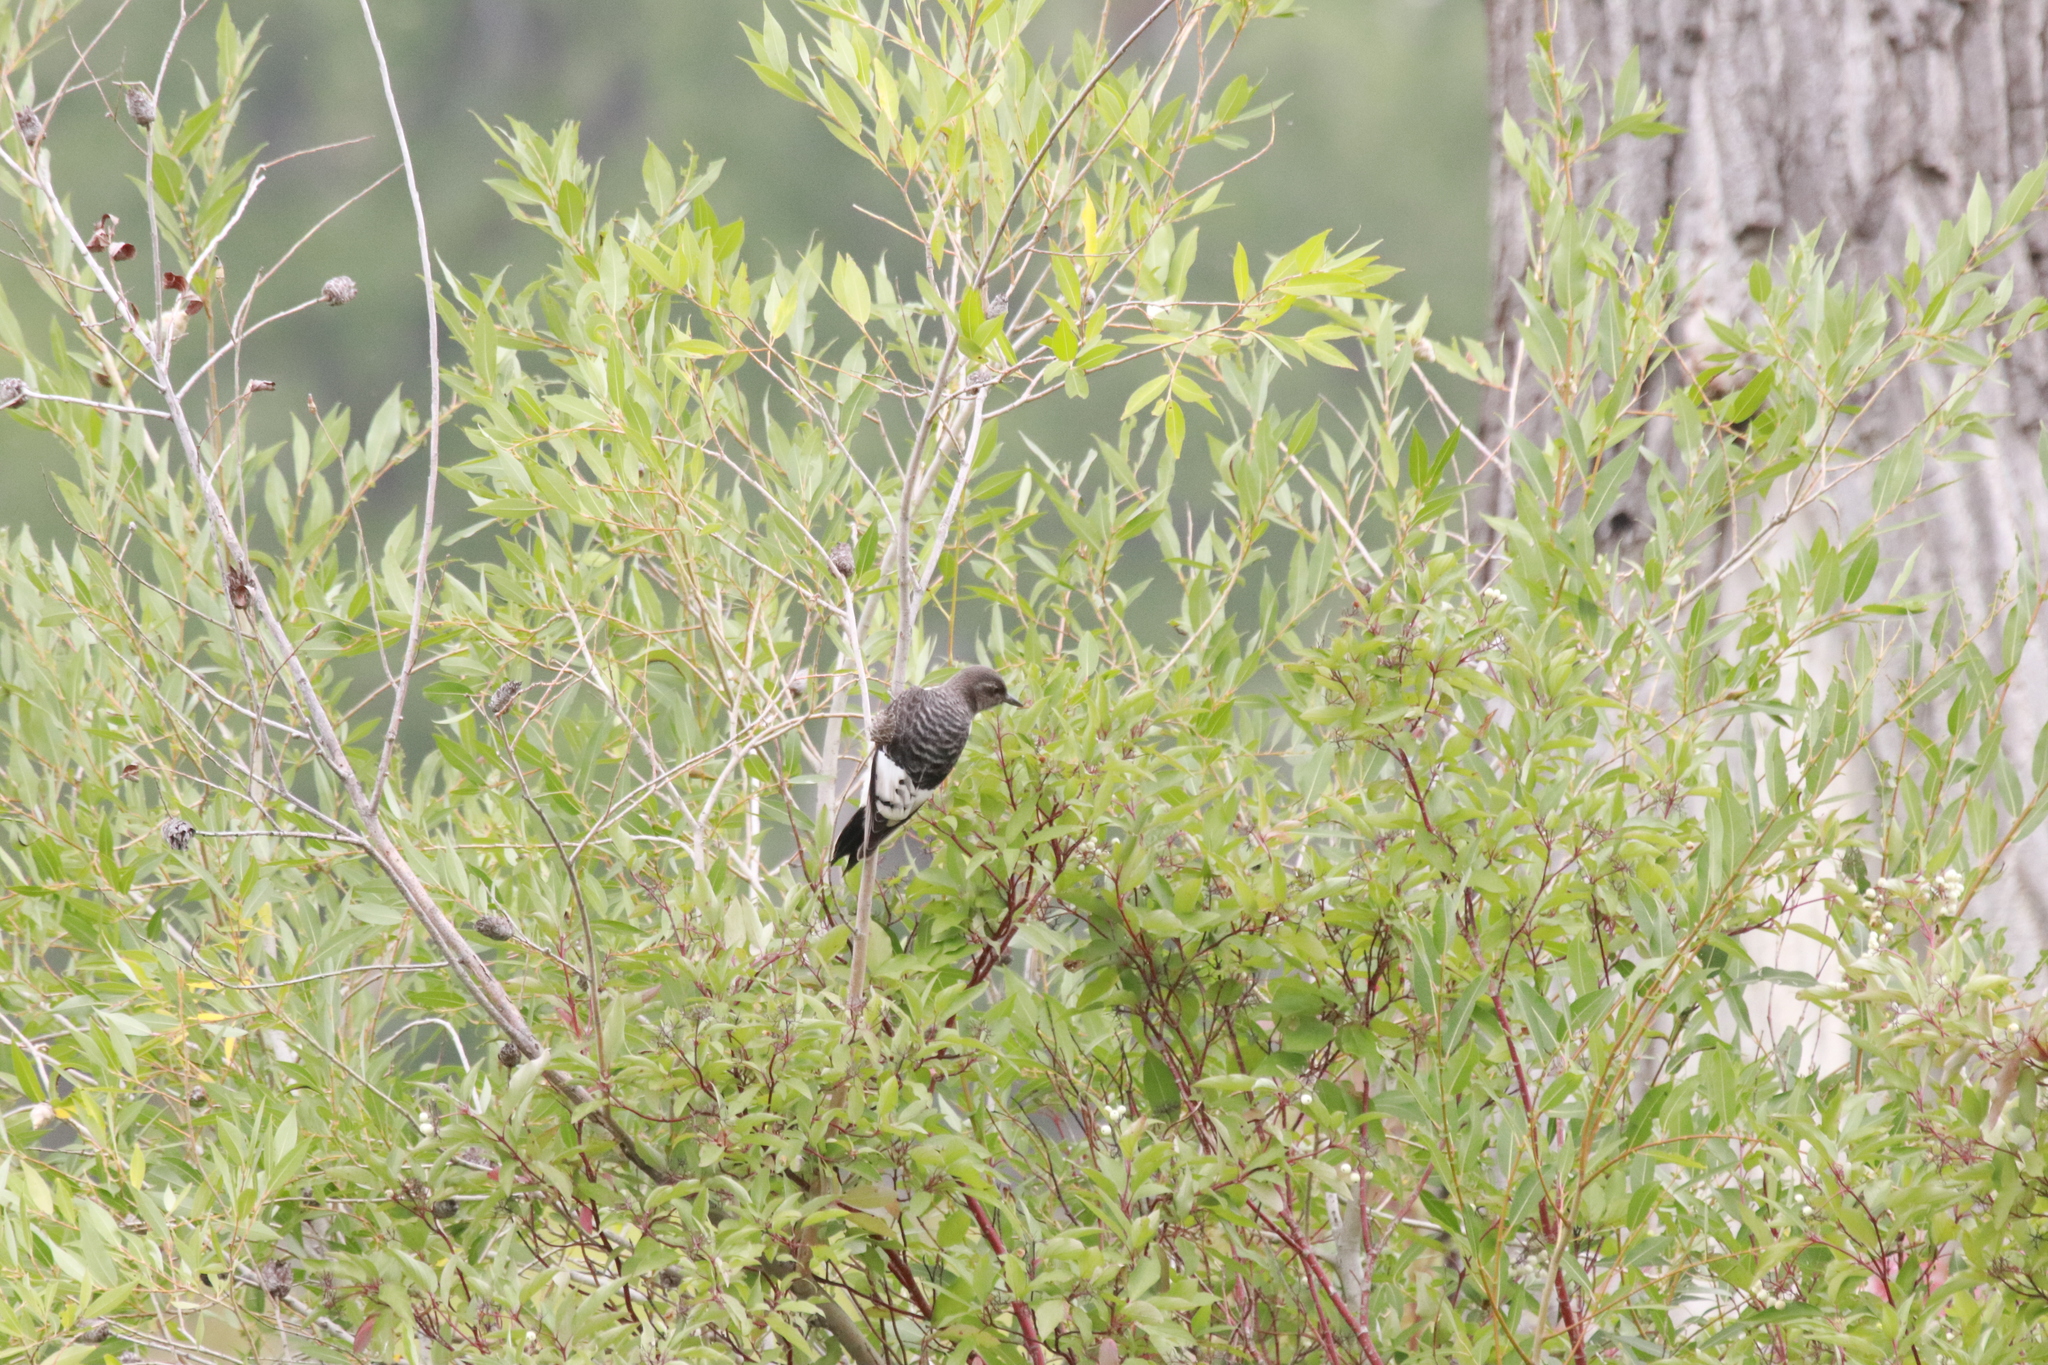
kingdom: Animalia
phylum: Chordata
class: Aves
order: Piciformes
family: Picidae
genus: Melanerpes
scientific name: Melanerpes erythrocephalus
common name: Red-headed woodpecker
